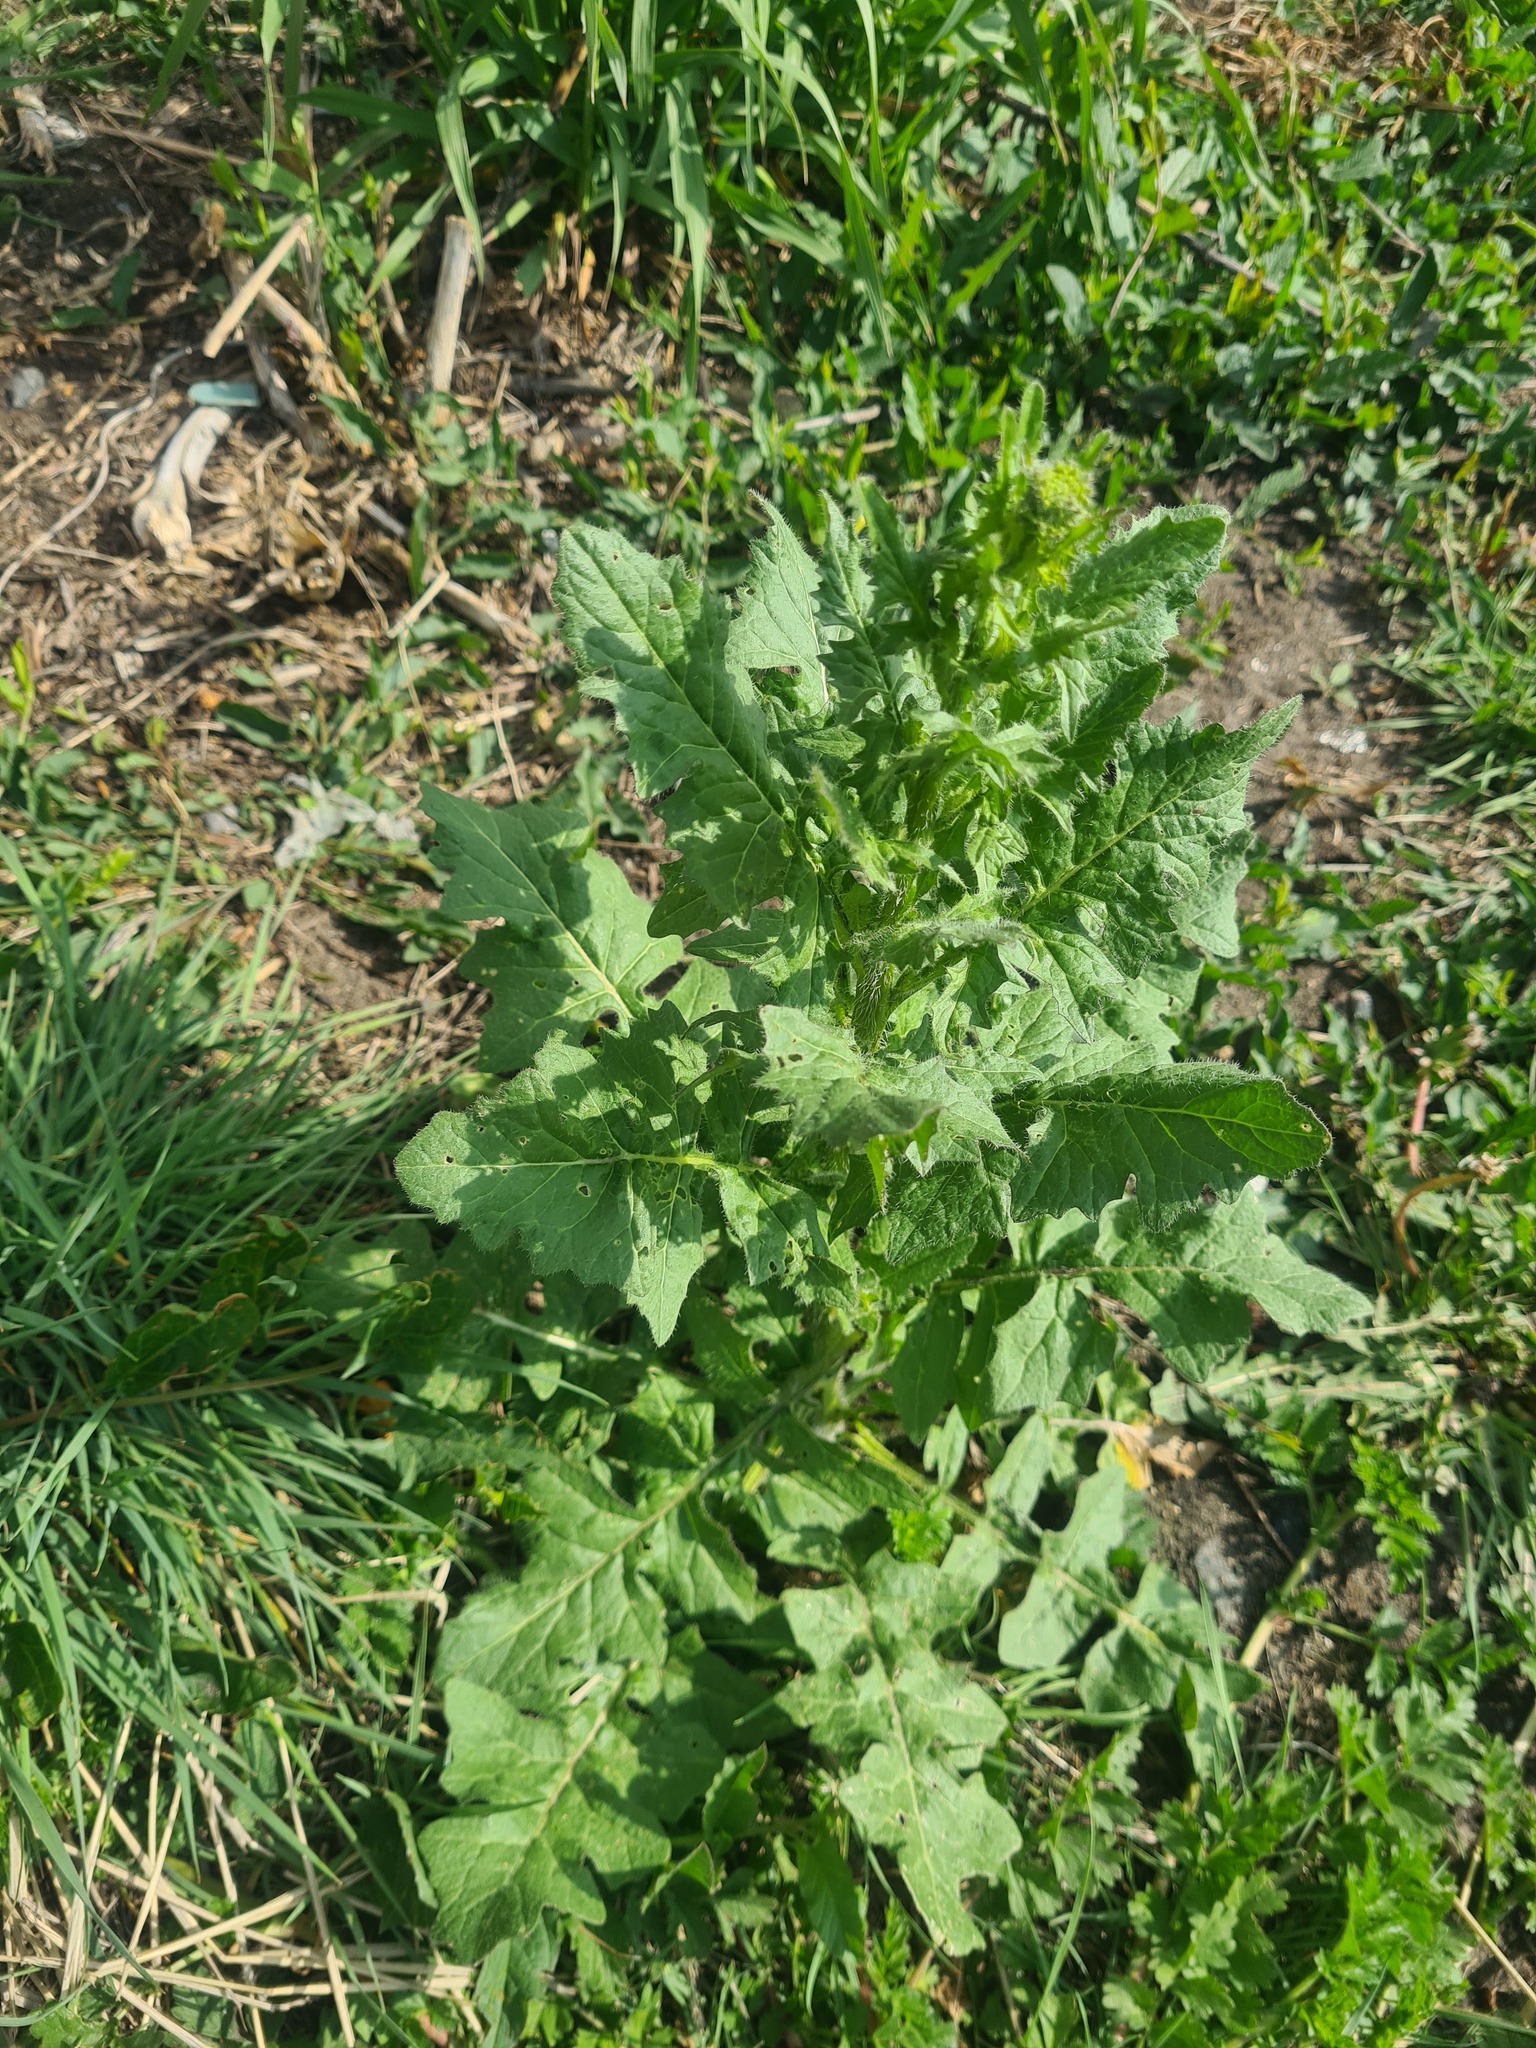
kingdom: Plantae
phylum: Tracheophyta
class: Magnoliopsida
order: Brassicales
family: Brassicaceae
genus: Sisymbrium
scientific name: Sisymbrium loeselii
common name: False london-rocket
